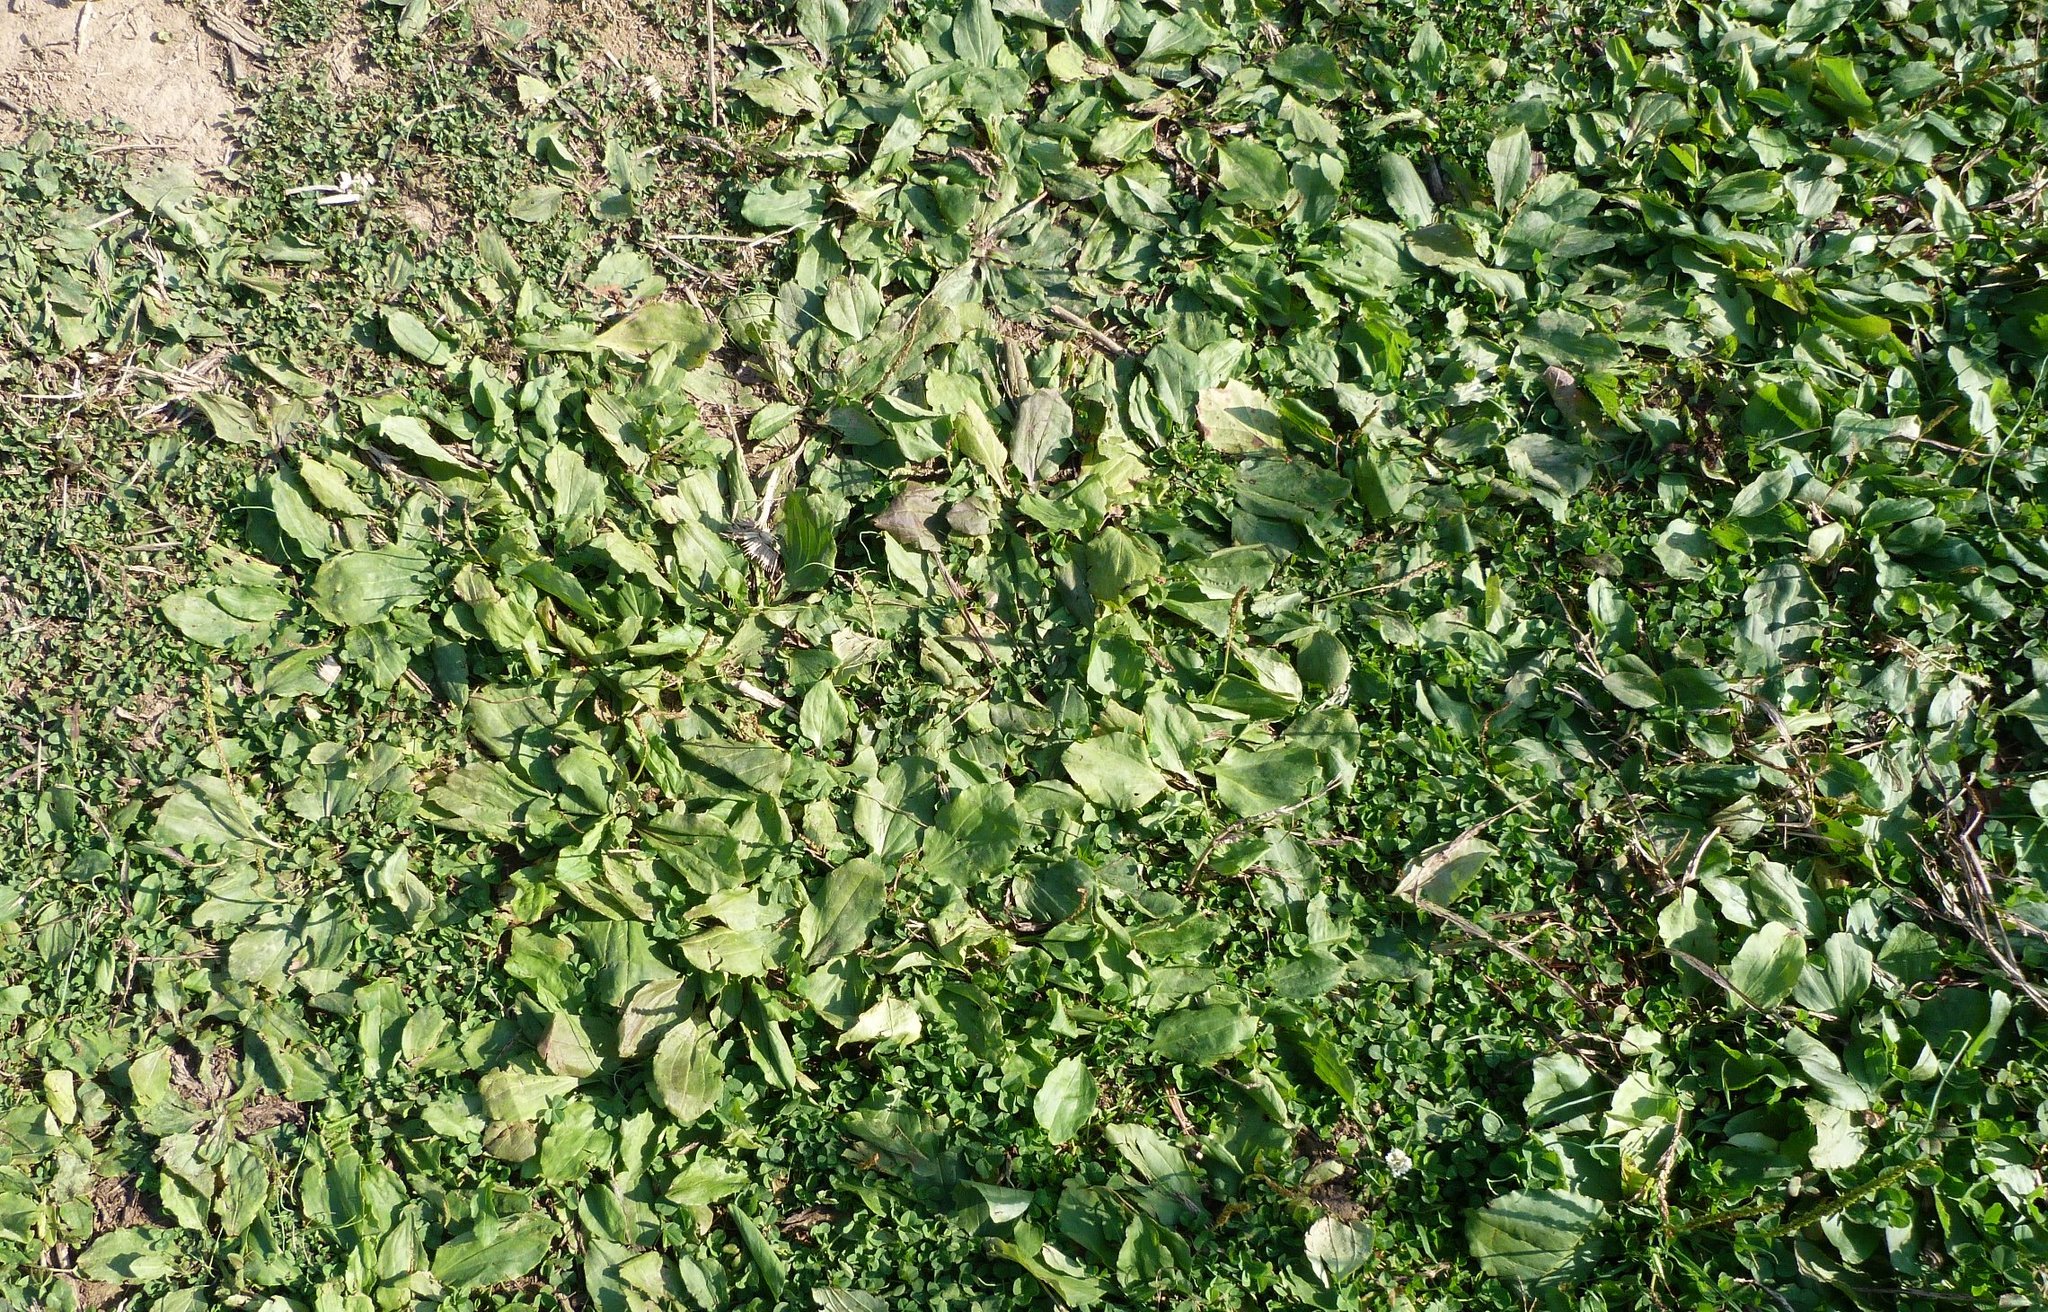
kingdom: Plantae
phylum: Tracheophyta
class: Magnoliopsida
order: Lamiales
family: Plantaginaceae
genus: Plantago
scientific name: Plantago major
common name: Common plantain
